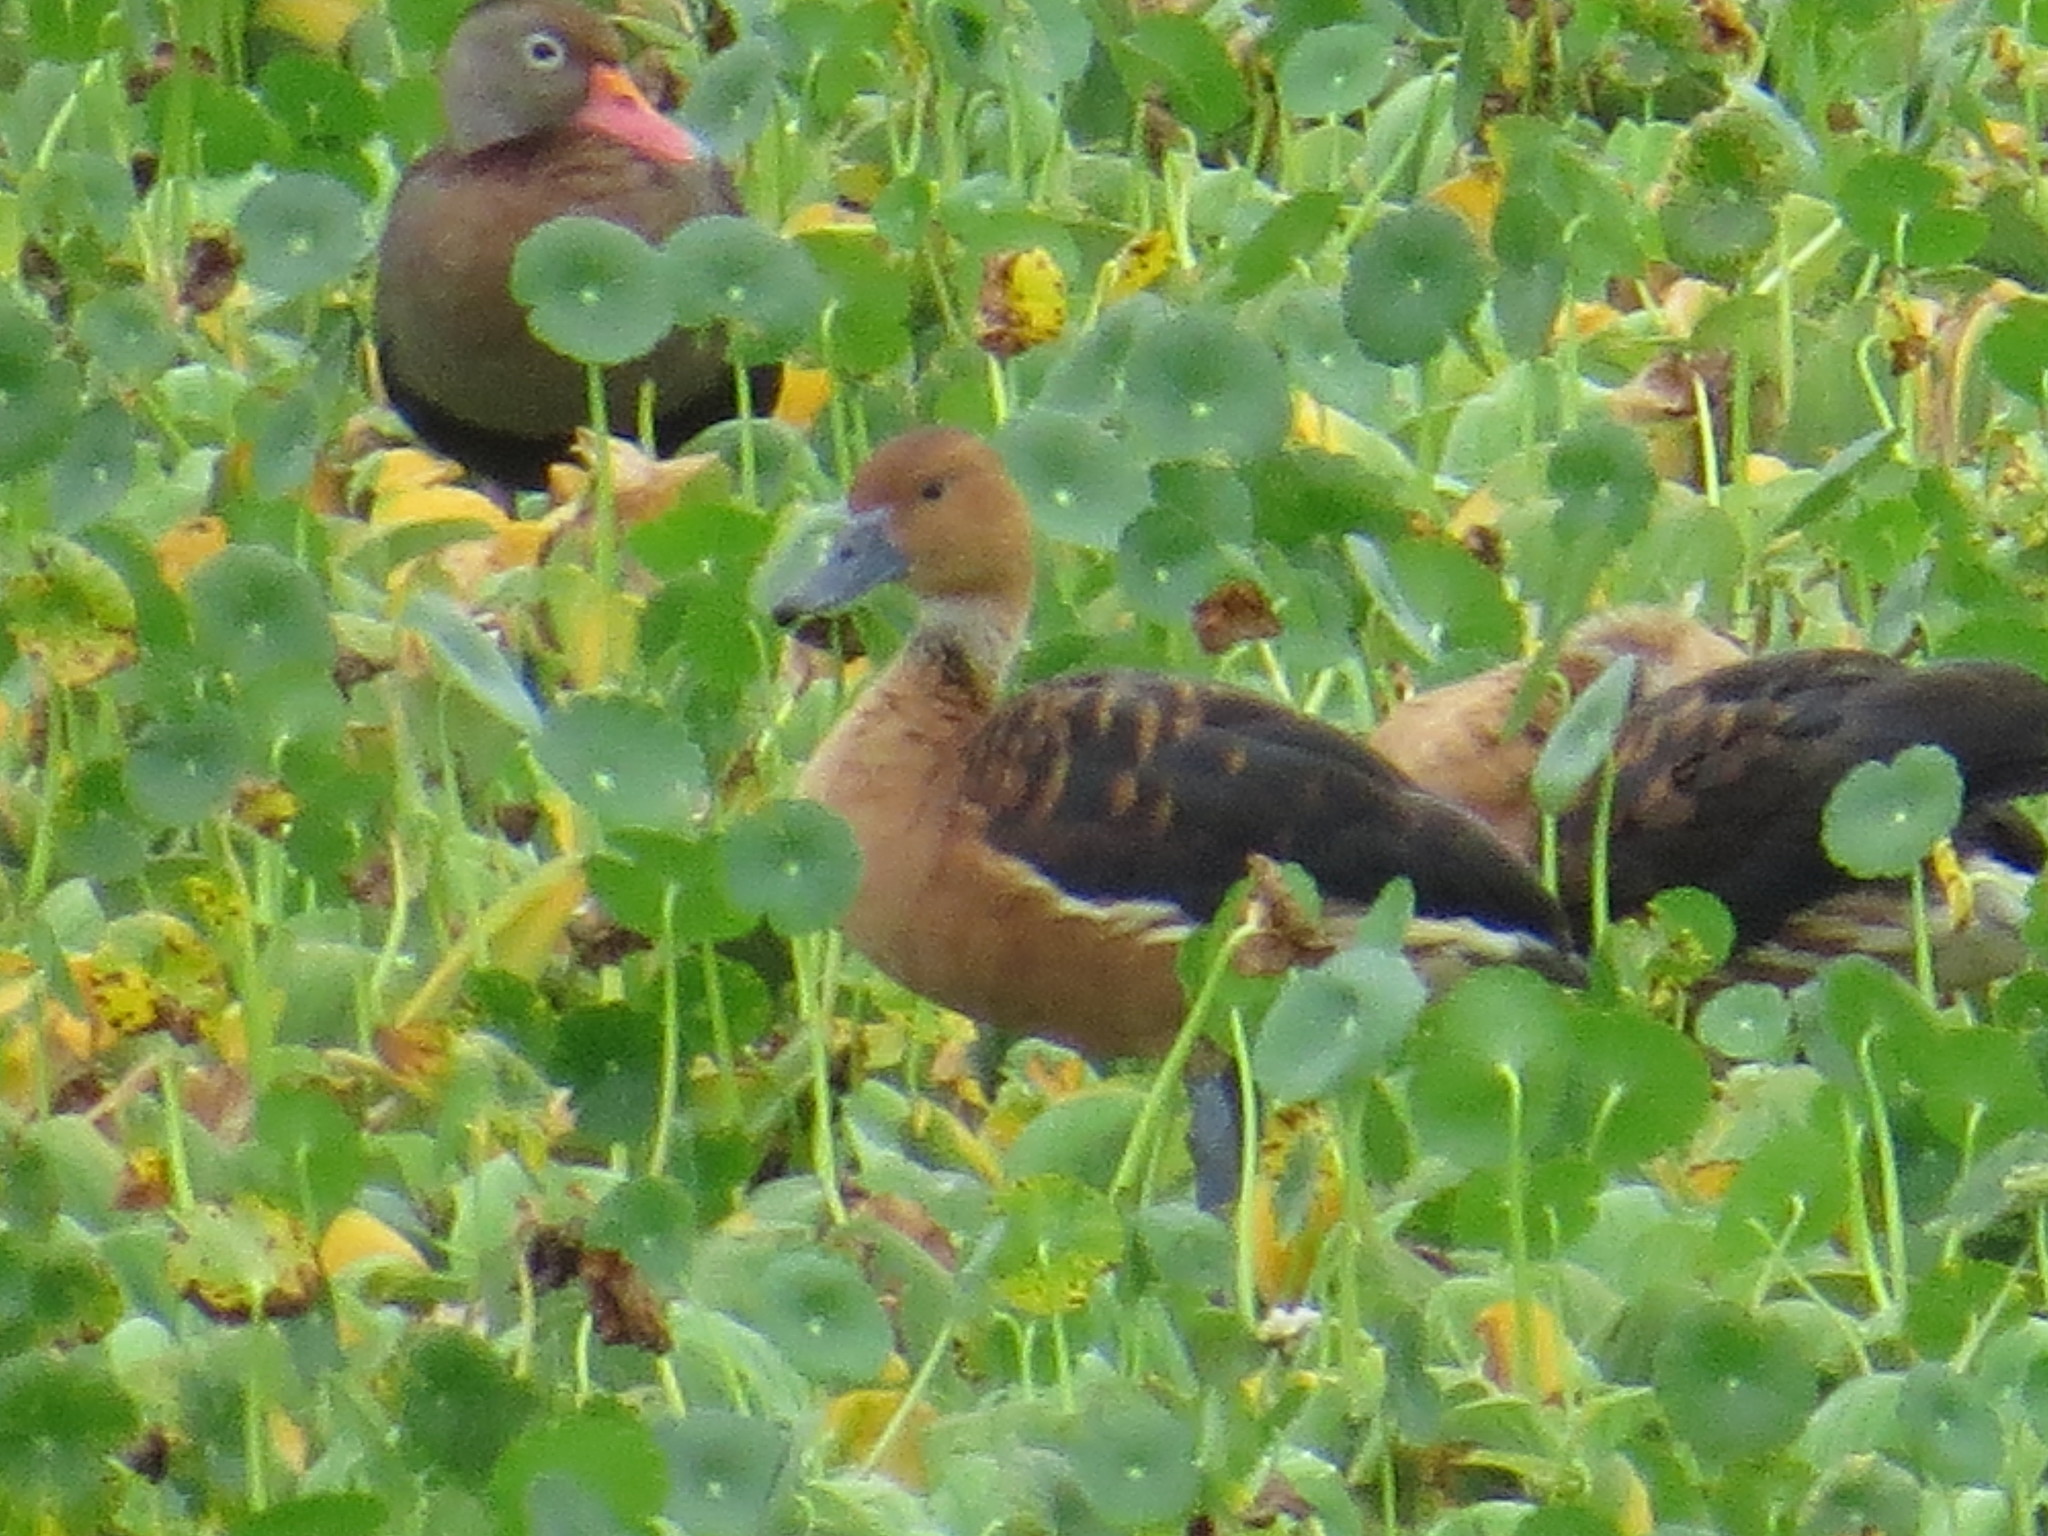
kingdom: Animalia
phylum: Chordata
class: Aves
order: Anseriformes
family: Anatidae
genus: Dendrocygna
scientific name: Dendrocygna bicolor
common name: Fulvous whistling duck
